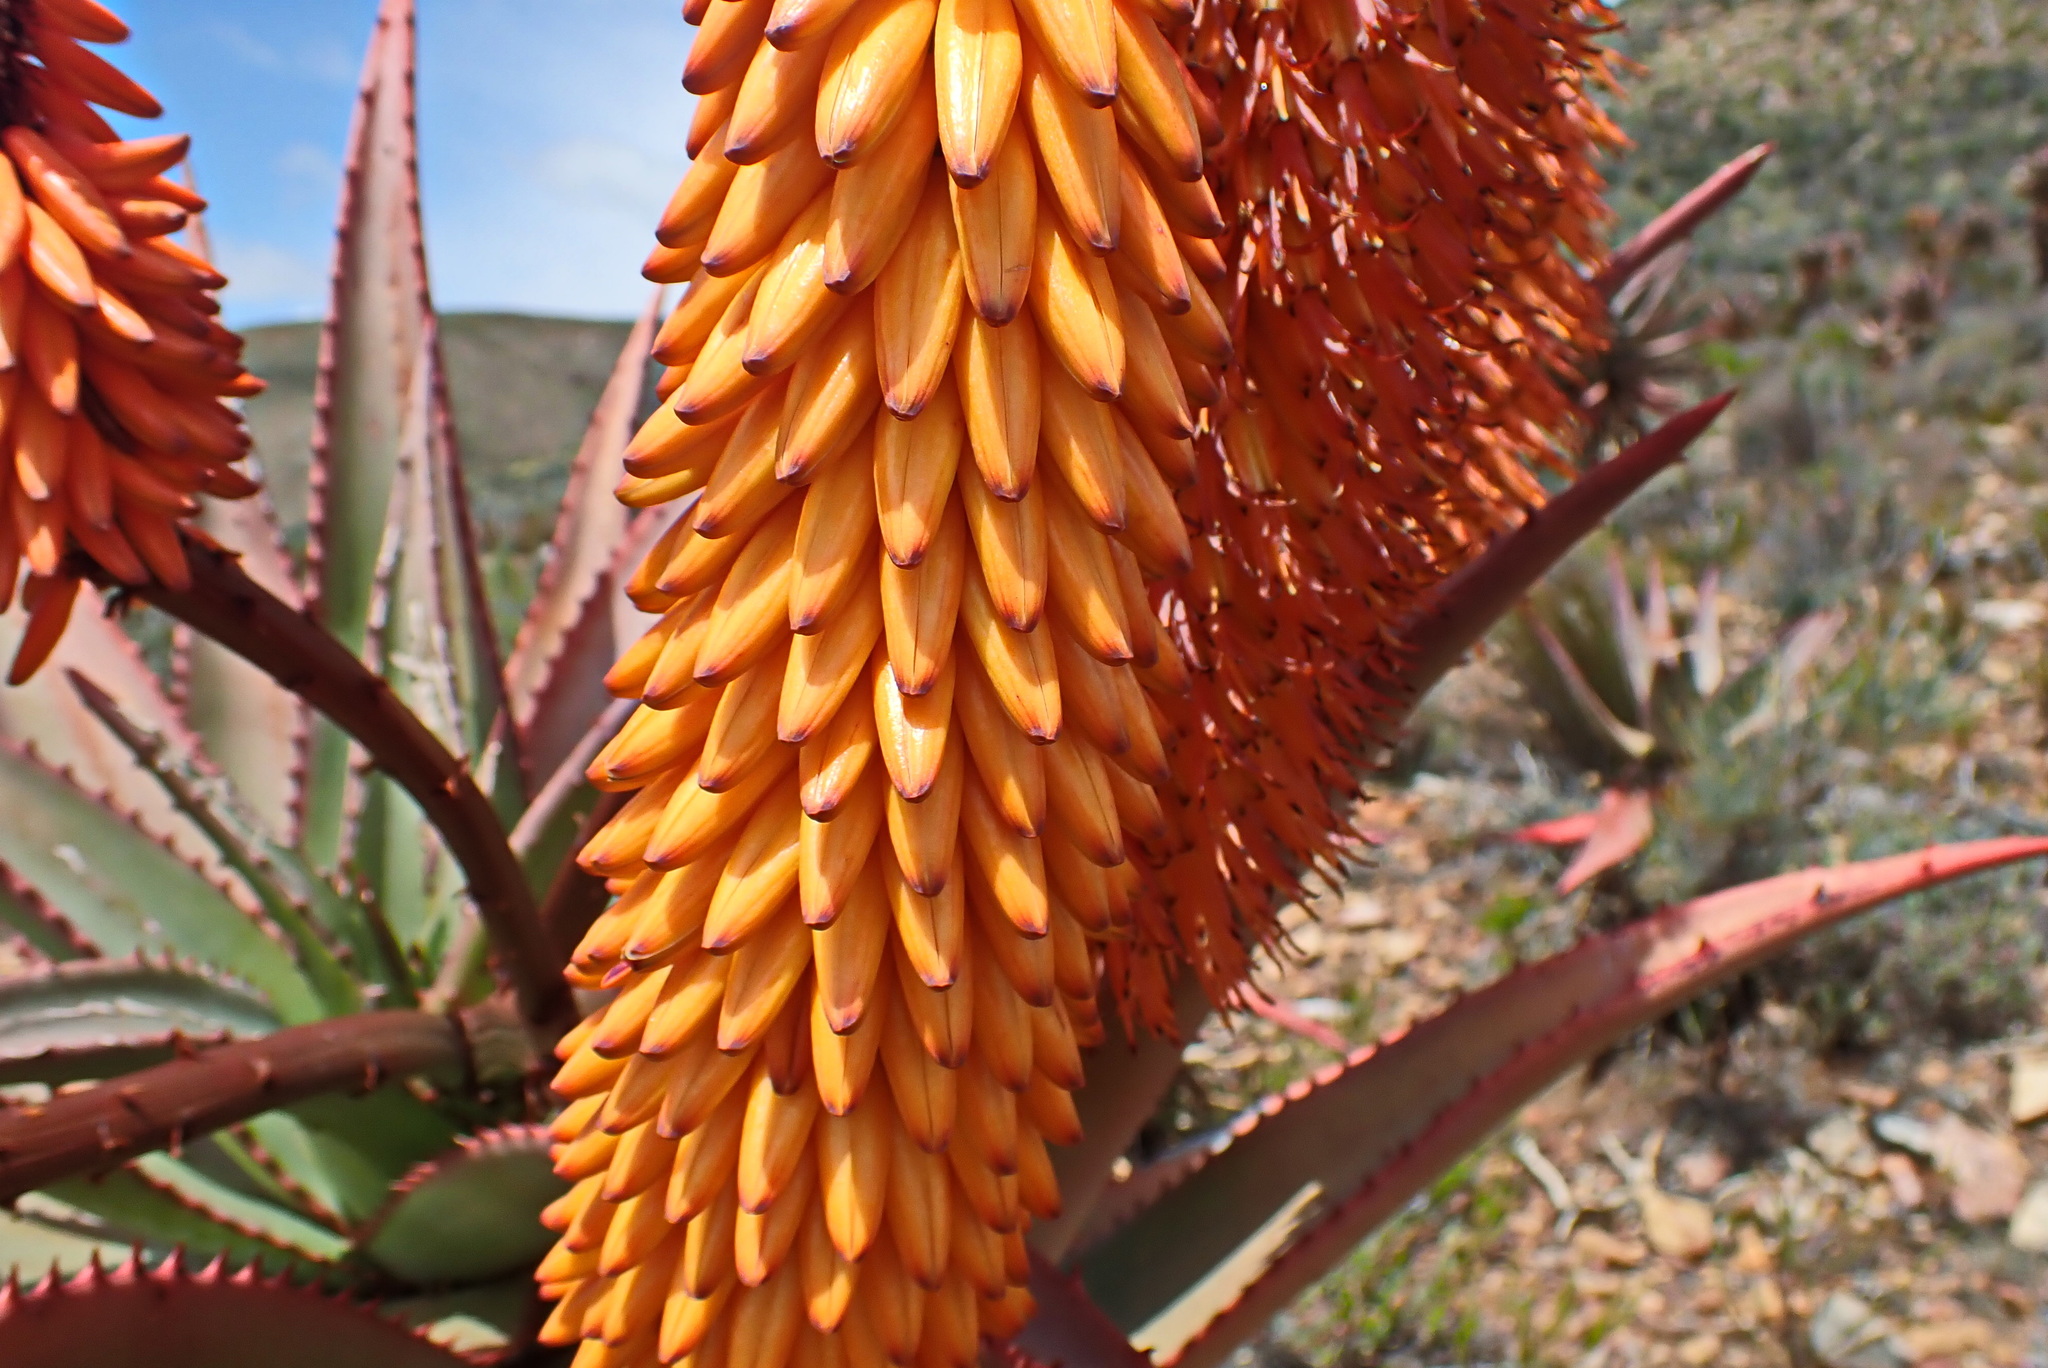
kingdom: Plantae
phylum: Tracheophyta
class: Liliopsida
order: Asparagales
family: Asphodelaceae
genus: Aloe
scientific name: Aloe ferox
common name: Bitter aloe
